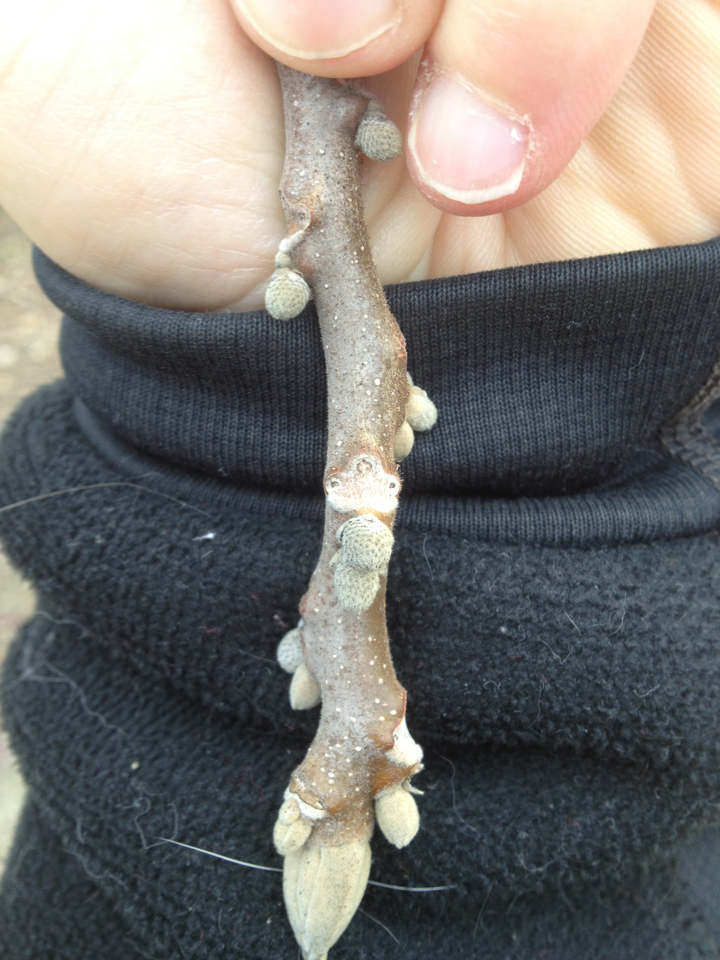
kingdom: Plantae
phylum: Tracheophyta
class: Magnoliopsida
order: Fagales
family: Juglandaceae
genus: Juglans
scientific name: Juglans cinerea
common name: Butternut
